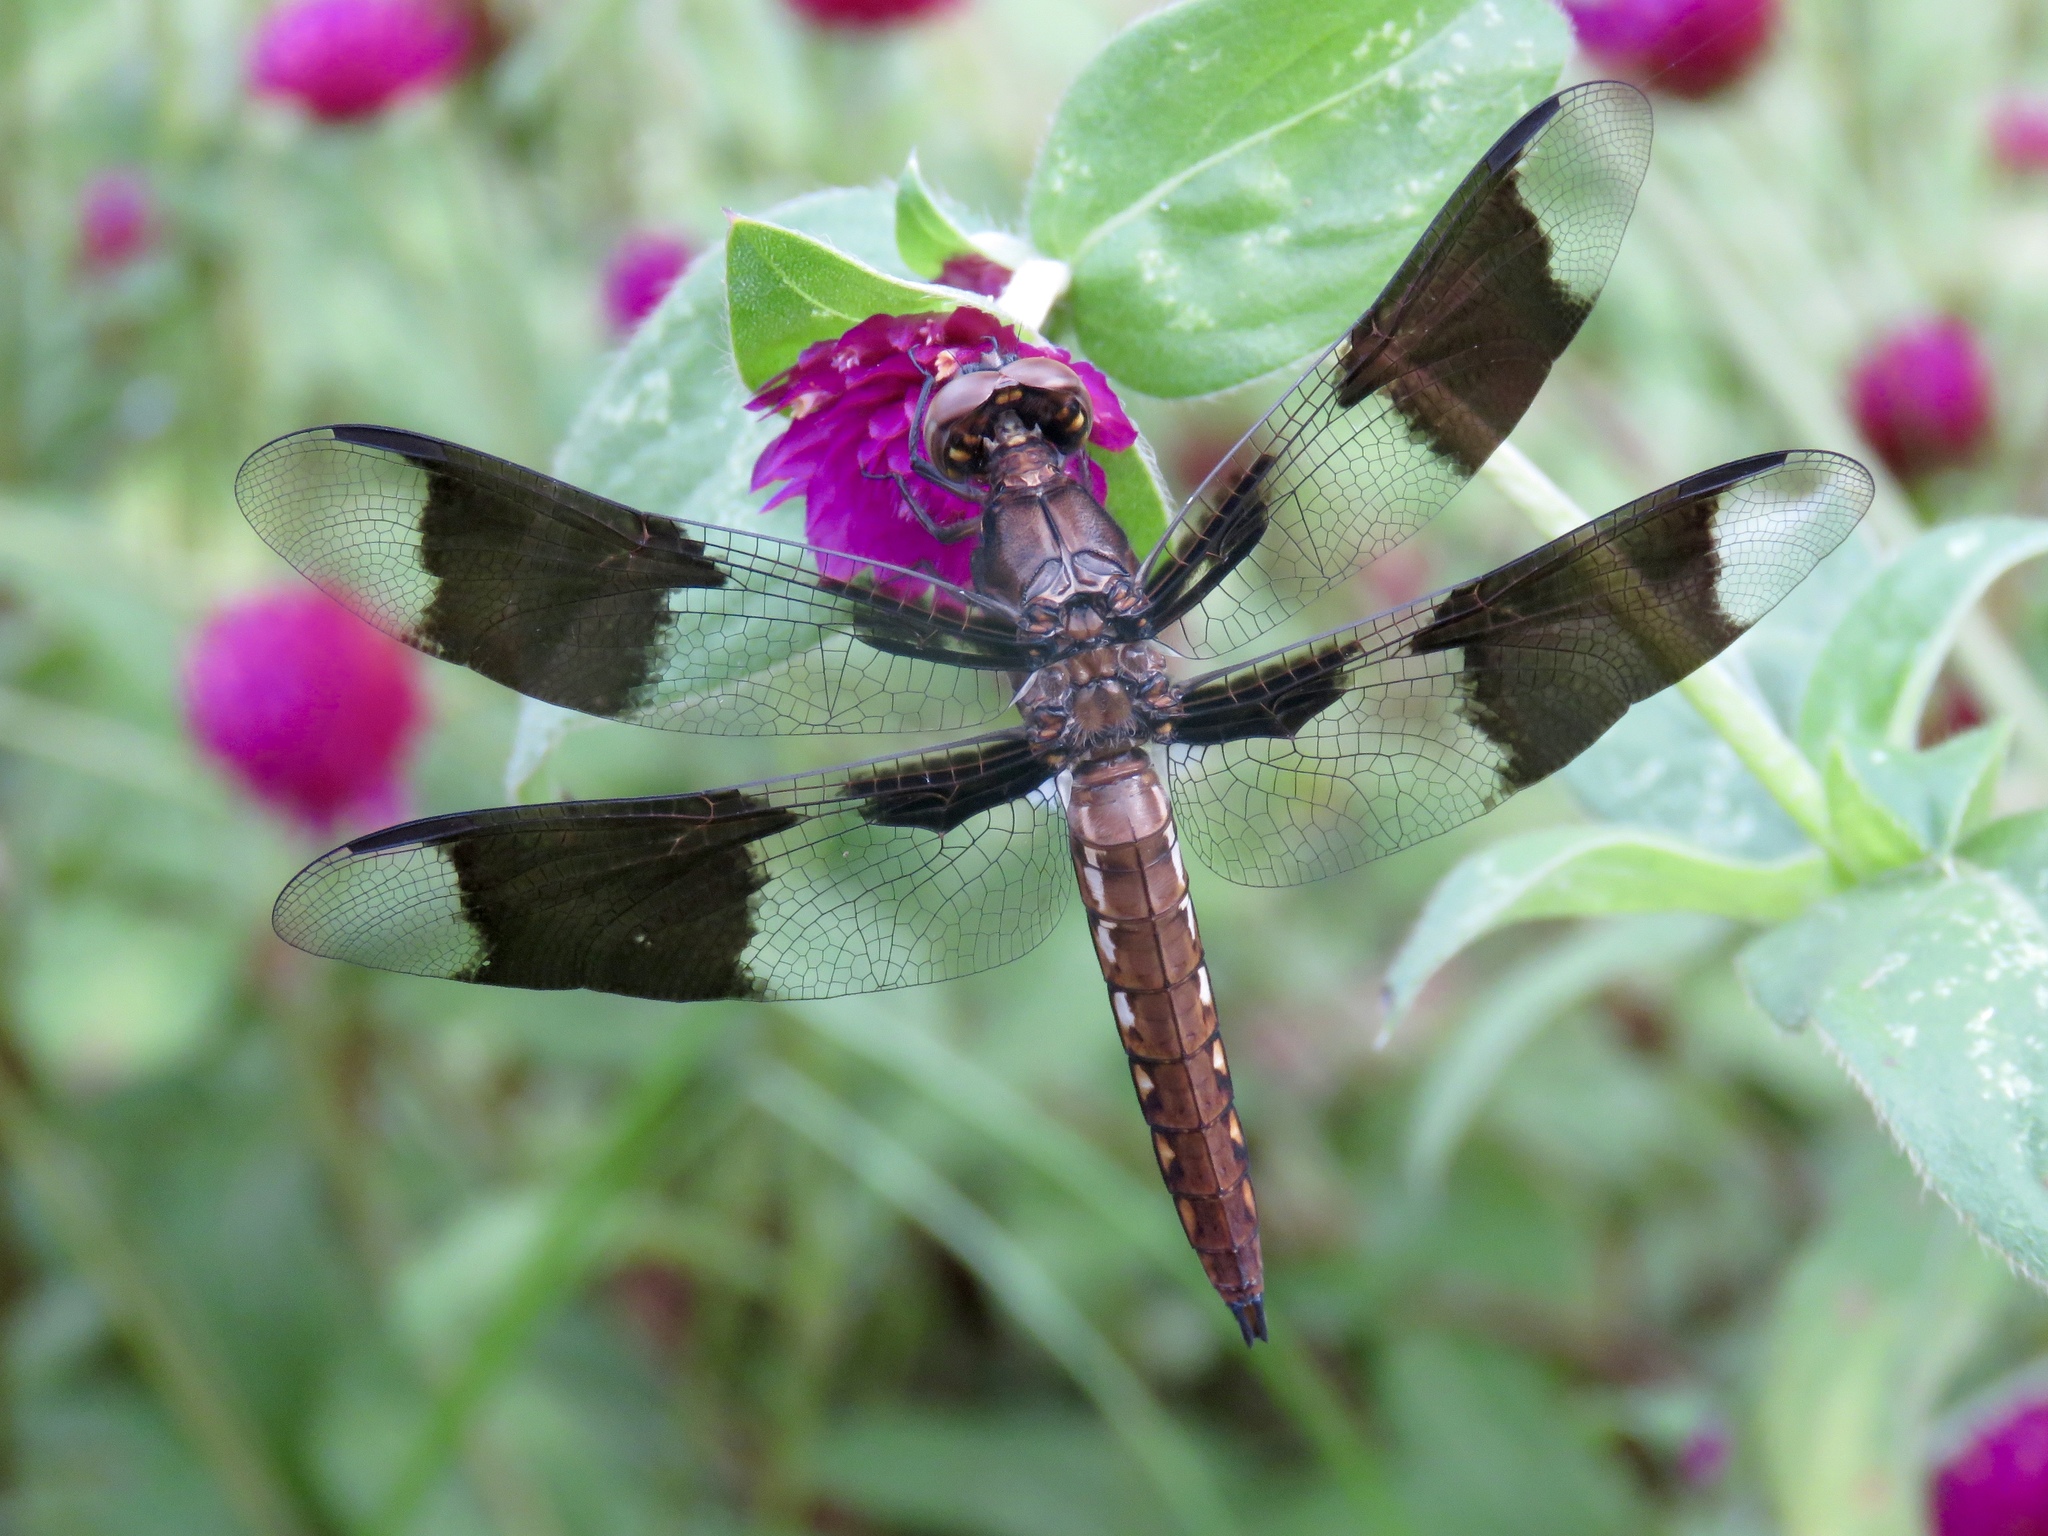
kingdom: Animalia
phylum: Arthropoda
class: Insecta
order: Odonata
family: Libellulidae
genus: Plathemis
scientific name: Plathemis lydia
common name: Common whitetail
